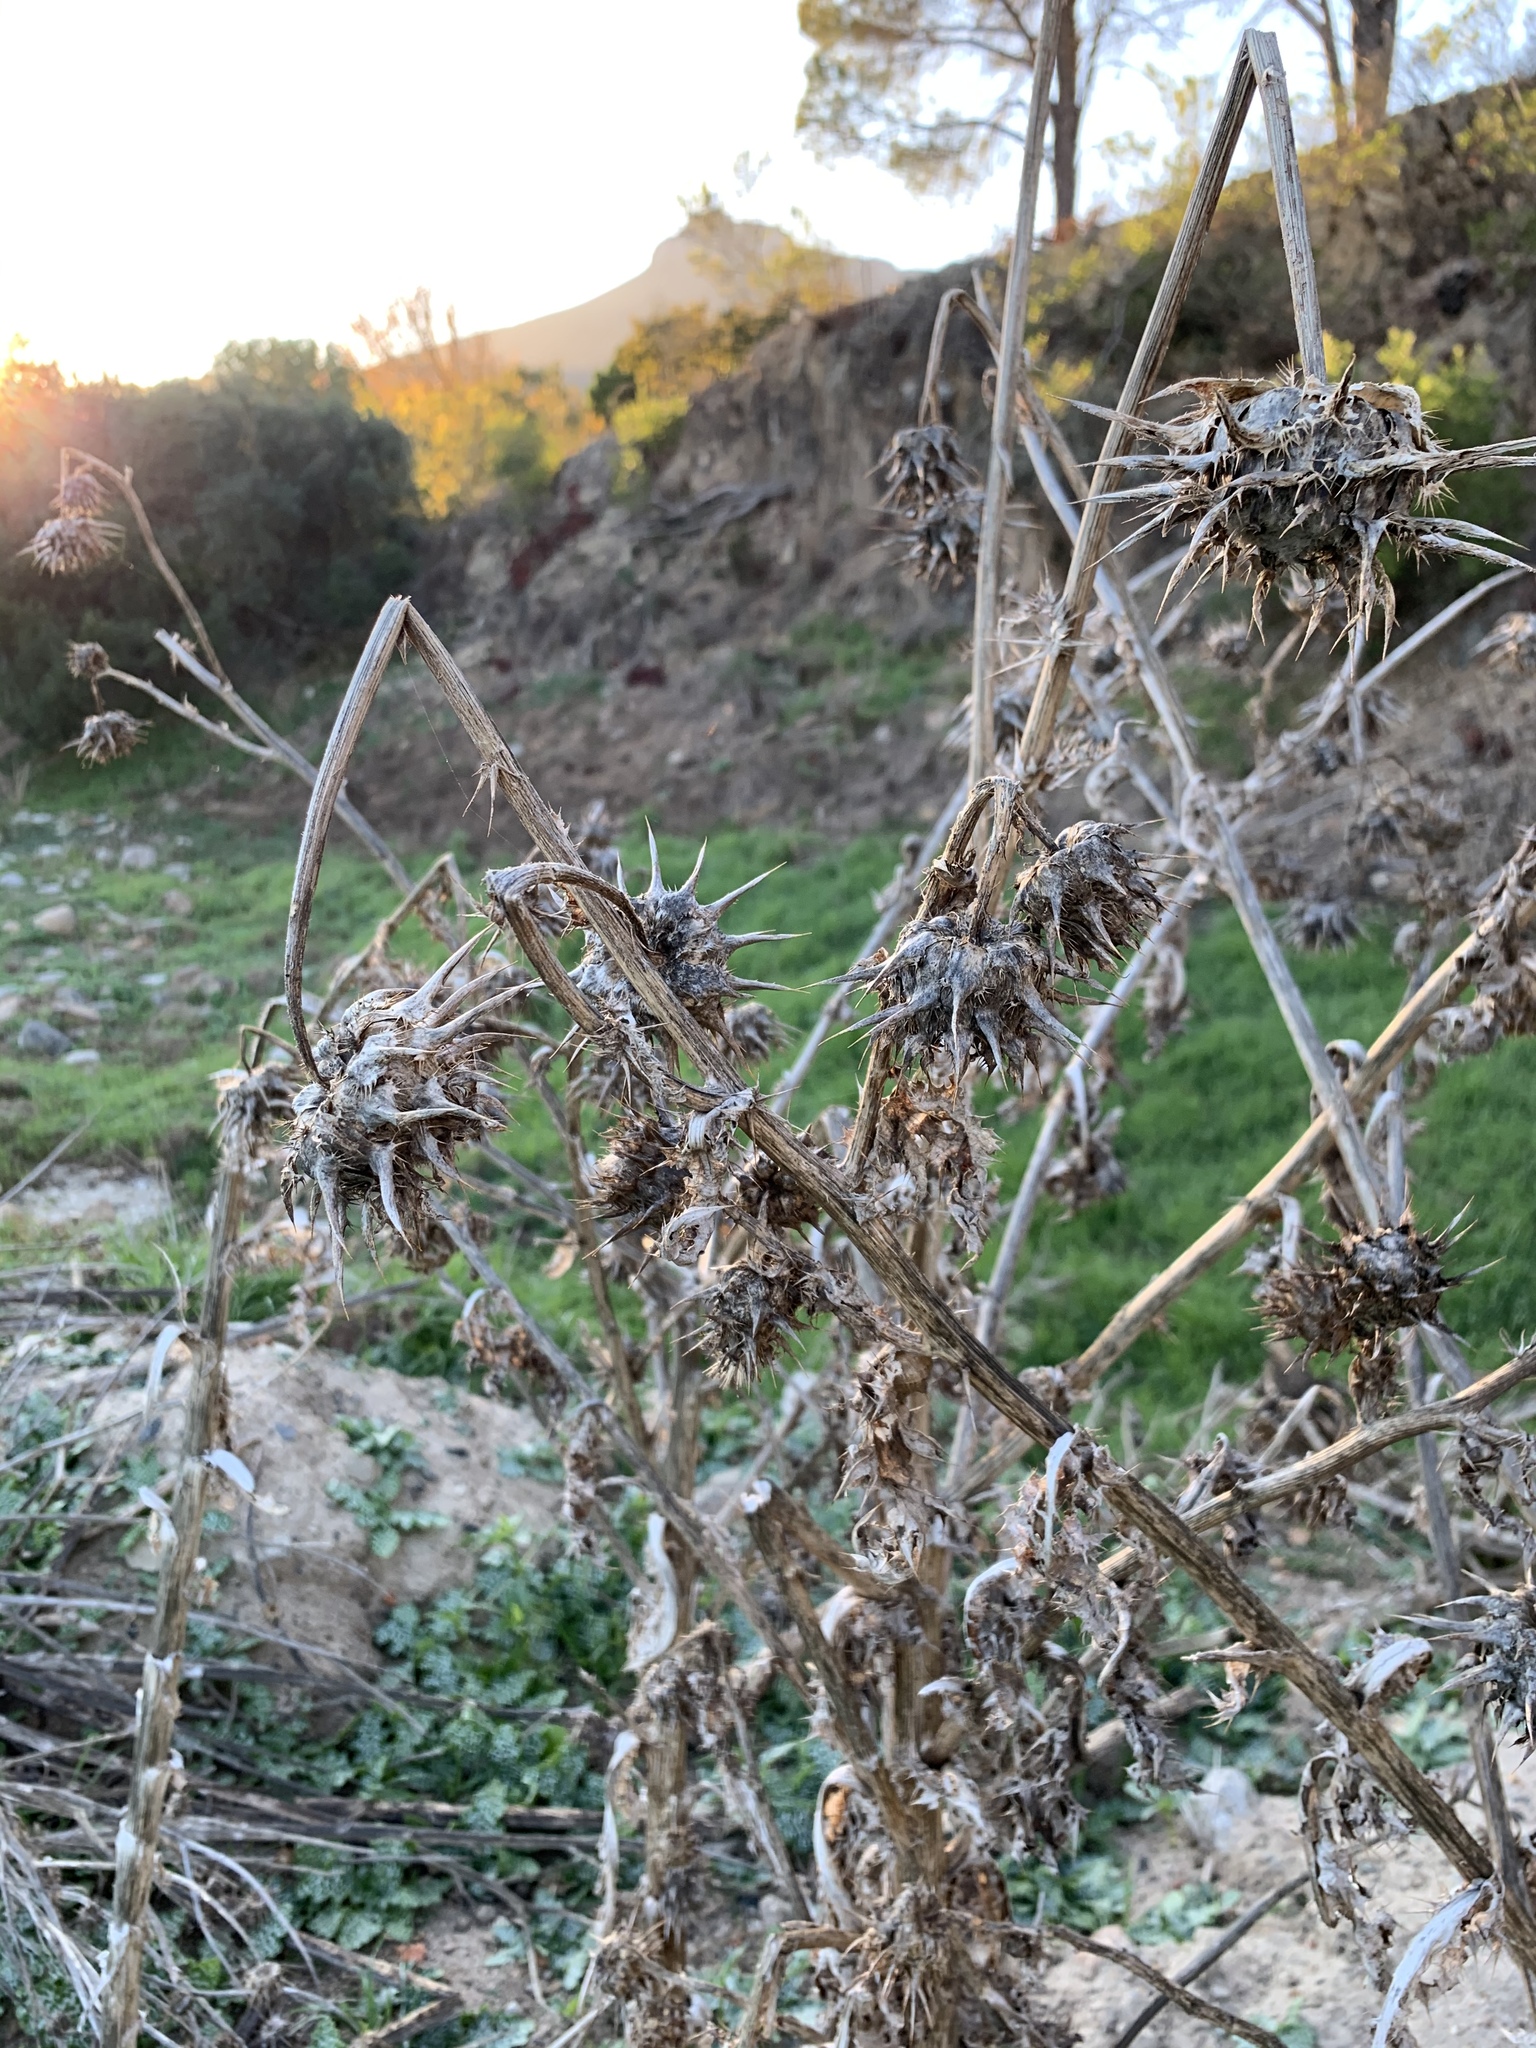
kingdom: Plantae
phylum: Tracheophyta
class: Magnoliopsida
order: Asterales
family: Asteraceae
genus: Silybum
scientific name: Silybum marianum
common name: Milk thistle
